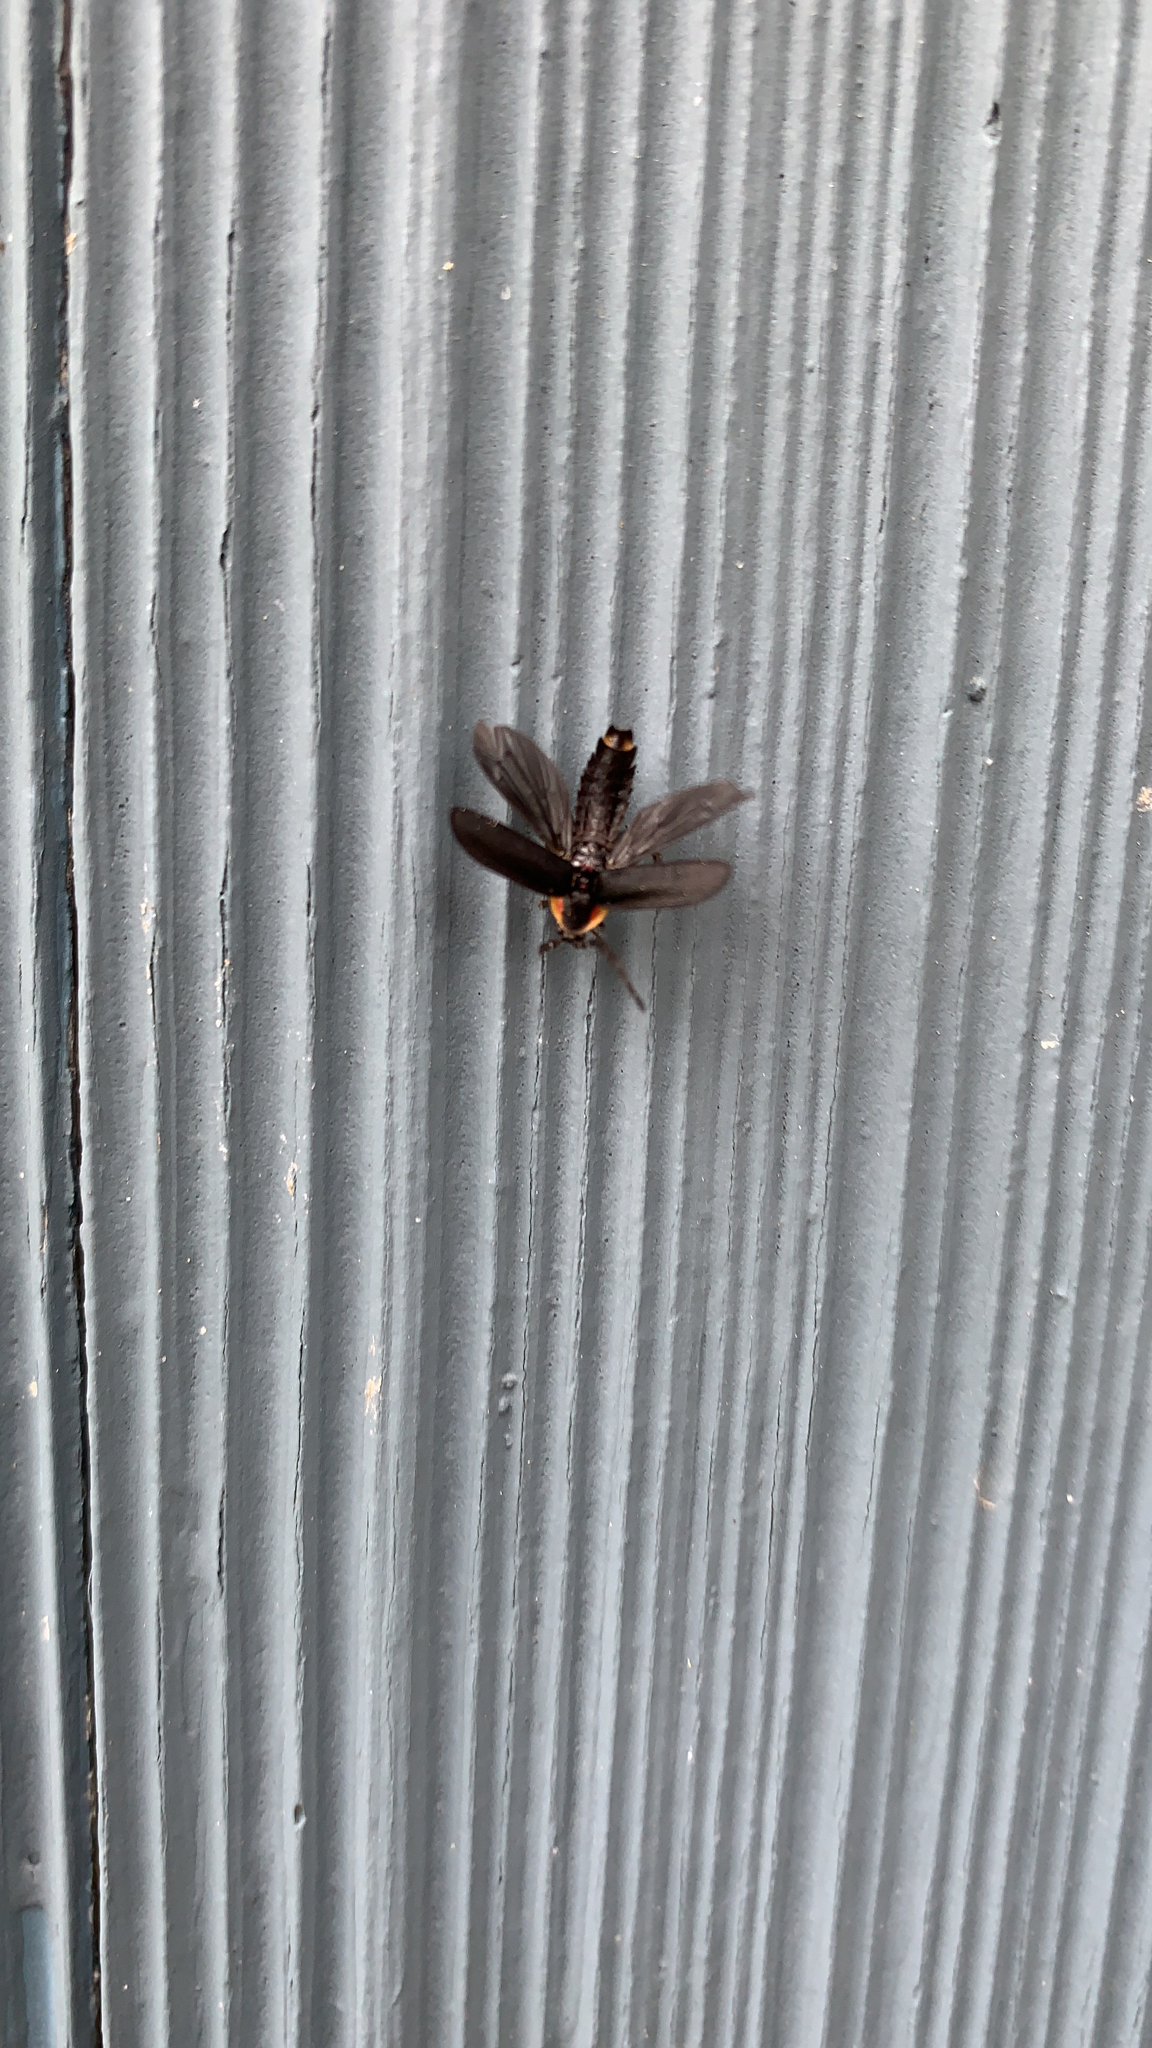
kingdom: Animalia
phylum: Arthropoda
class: Insecta
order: Coleoptera
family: Lampyridae
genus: Lucidota
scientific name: Lucidota atra
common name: Black firefly
